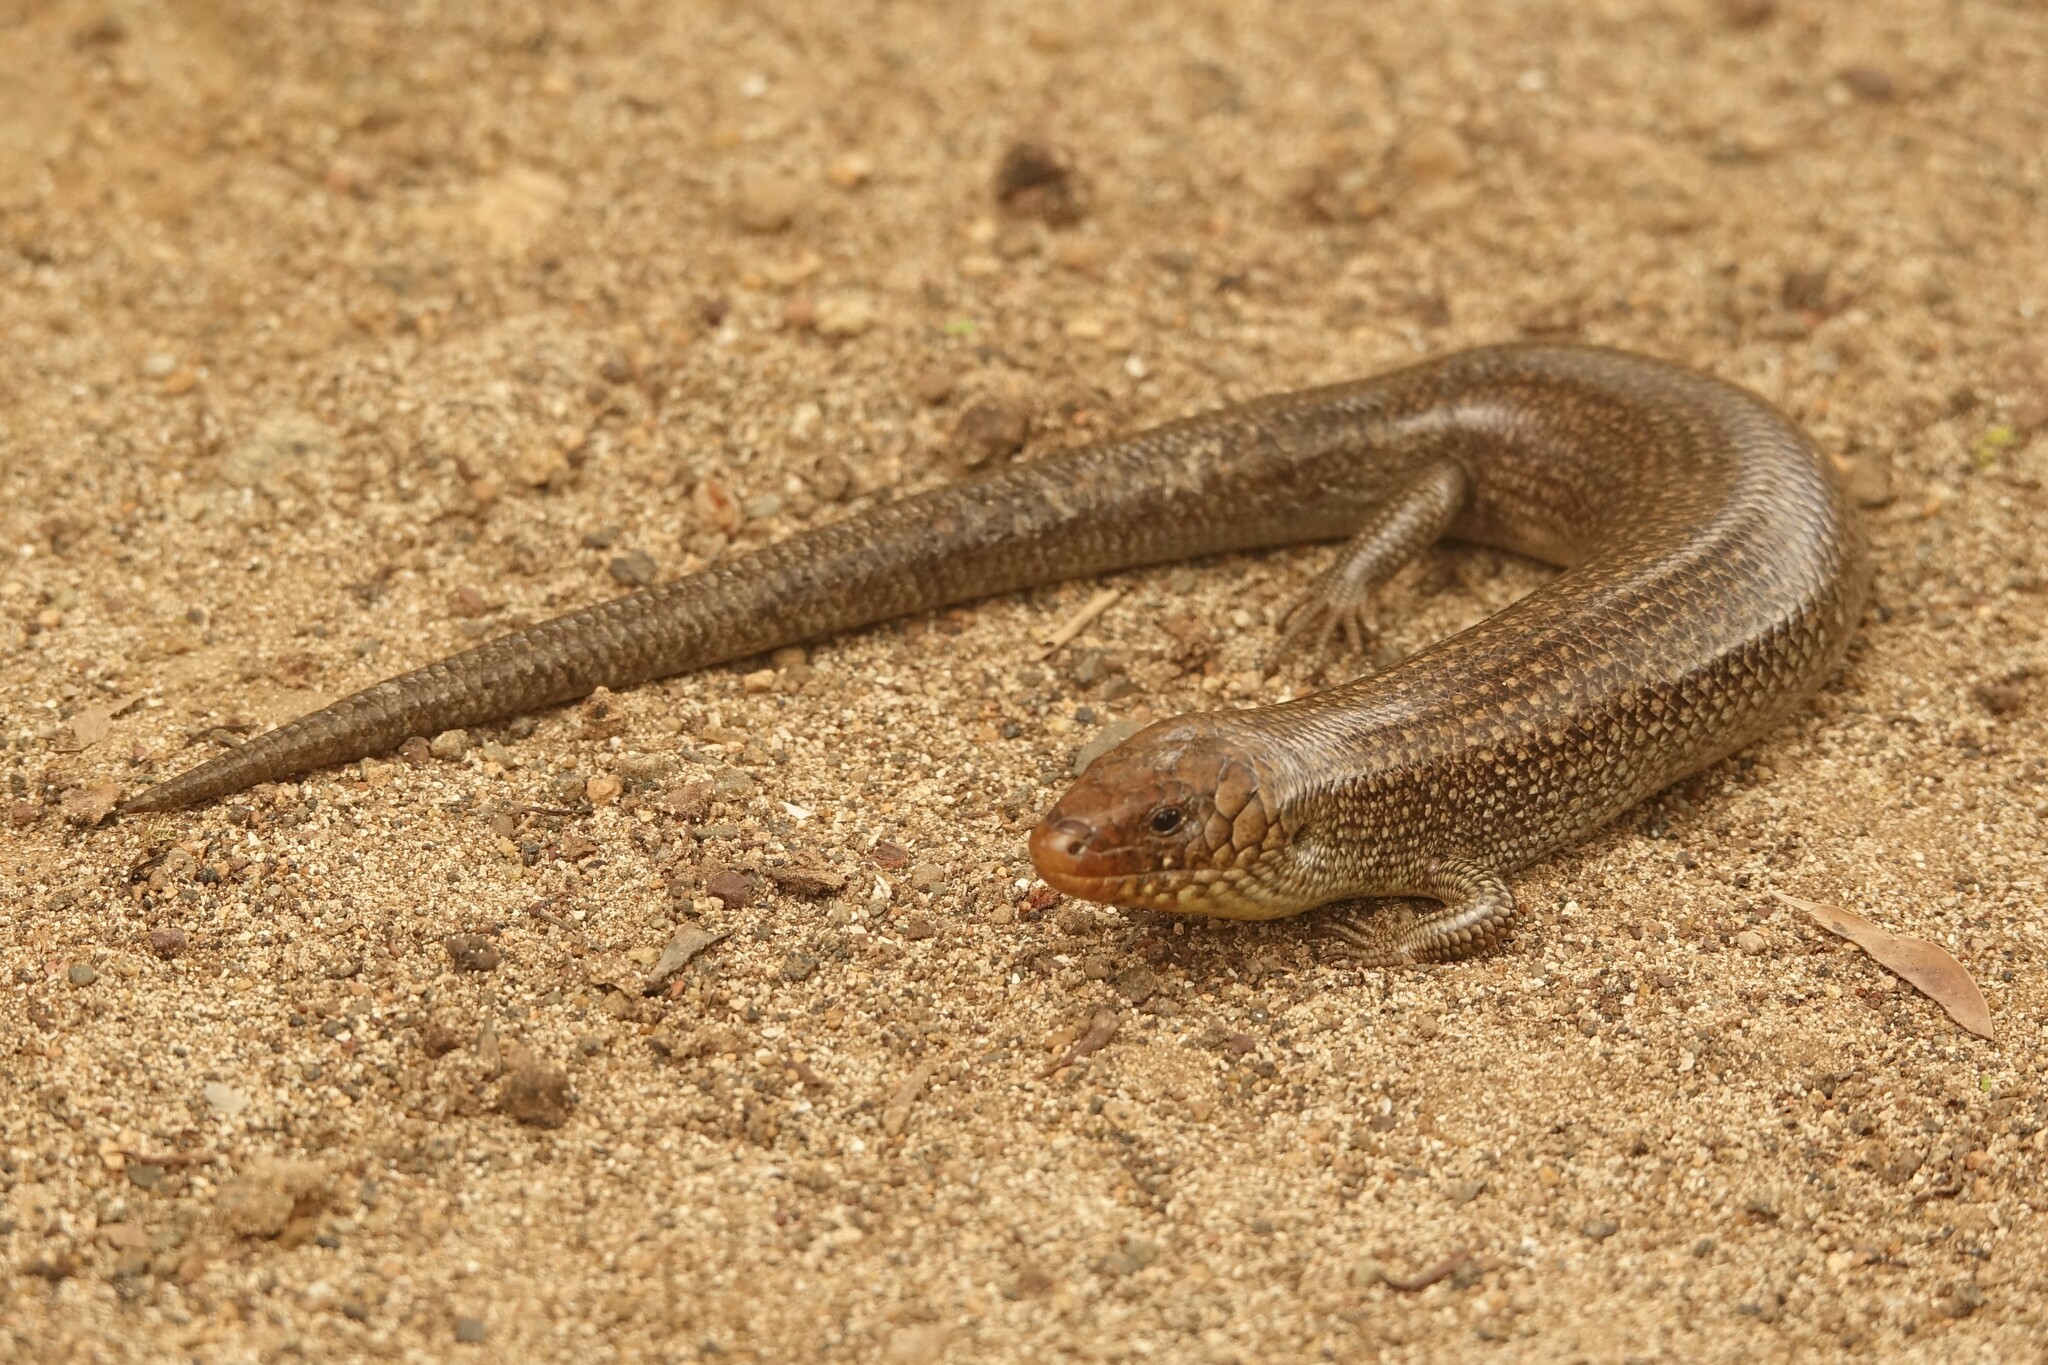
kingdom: Animalia
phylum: Chordata
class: Squamata
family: Scincidae
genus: Chalcides
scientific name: Chalcides simonyi
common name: East canary skink
